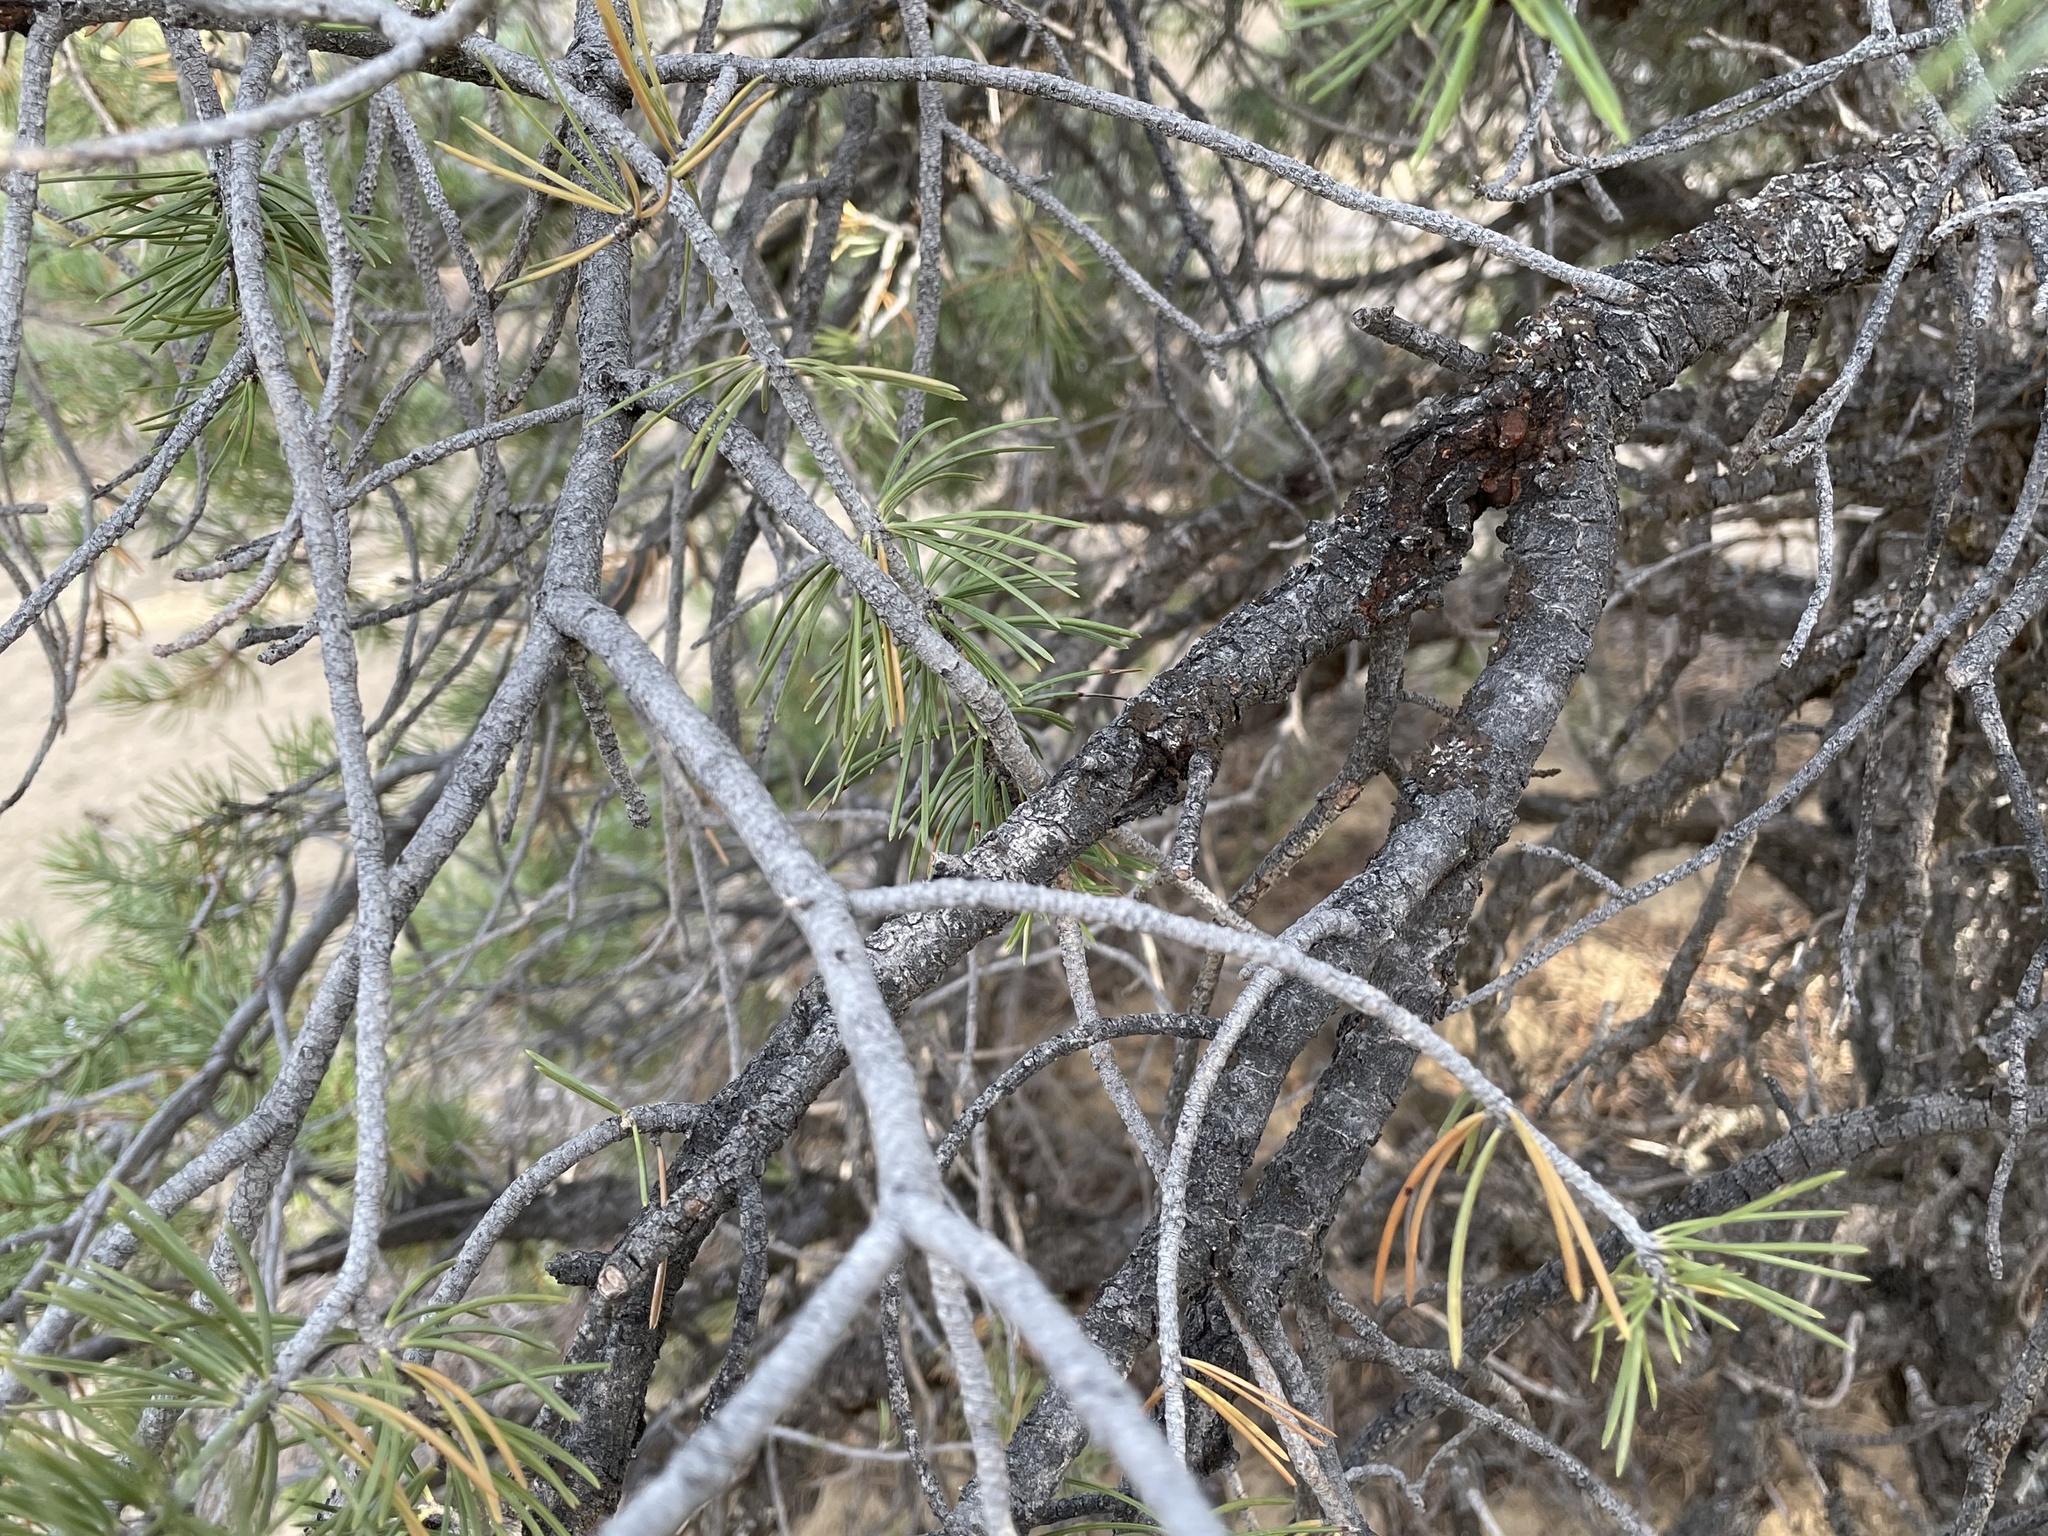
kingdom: Plantae
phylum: Tracheophyta
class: Pinopsida
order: Pinales
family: Pinaceae
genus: Pinus
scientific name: Pinus edulis
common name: Colorado pinyon
